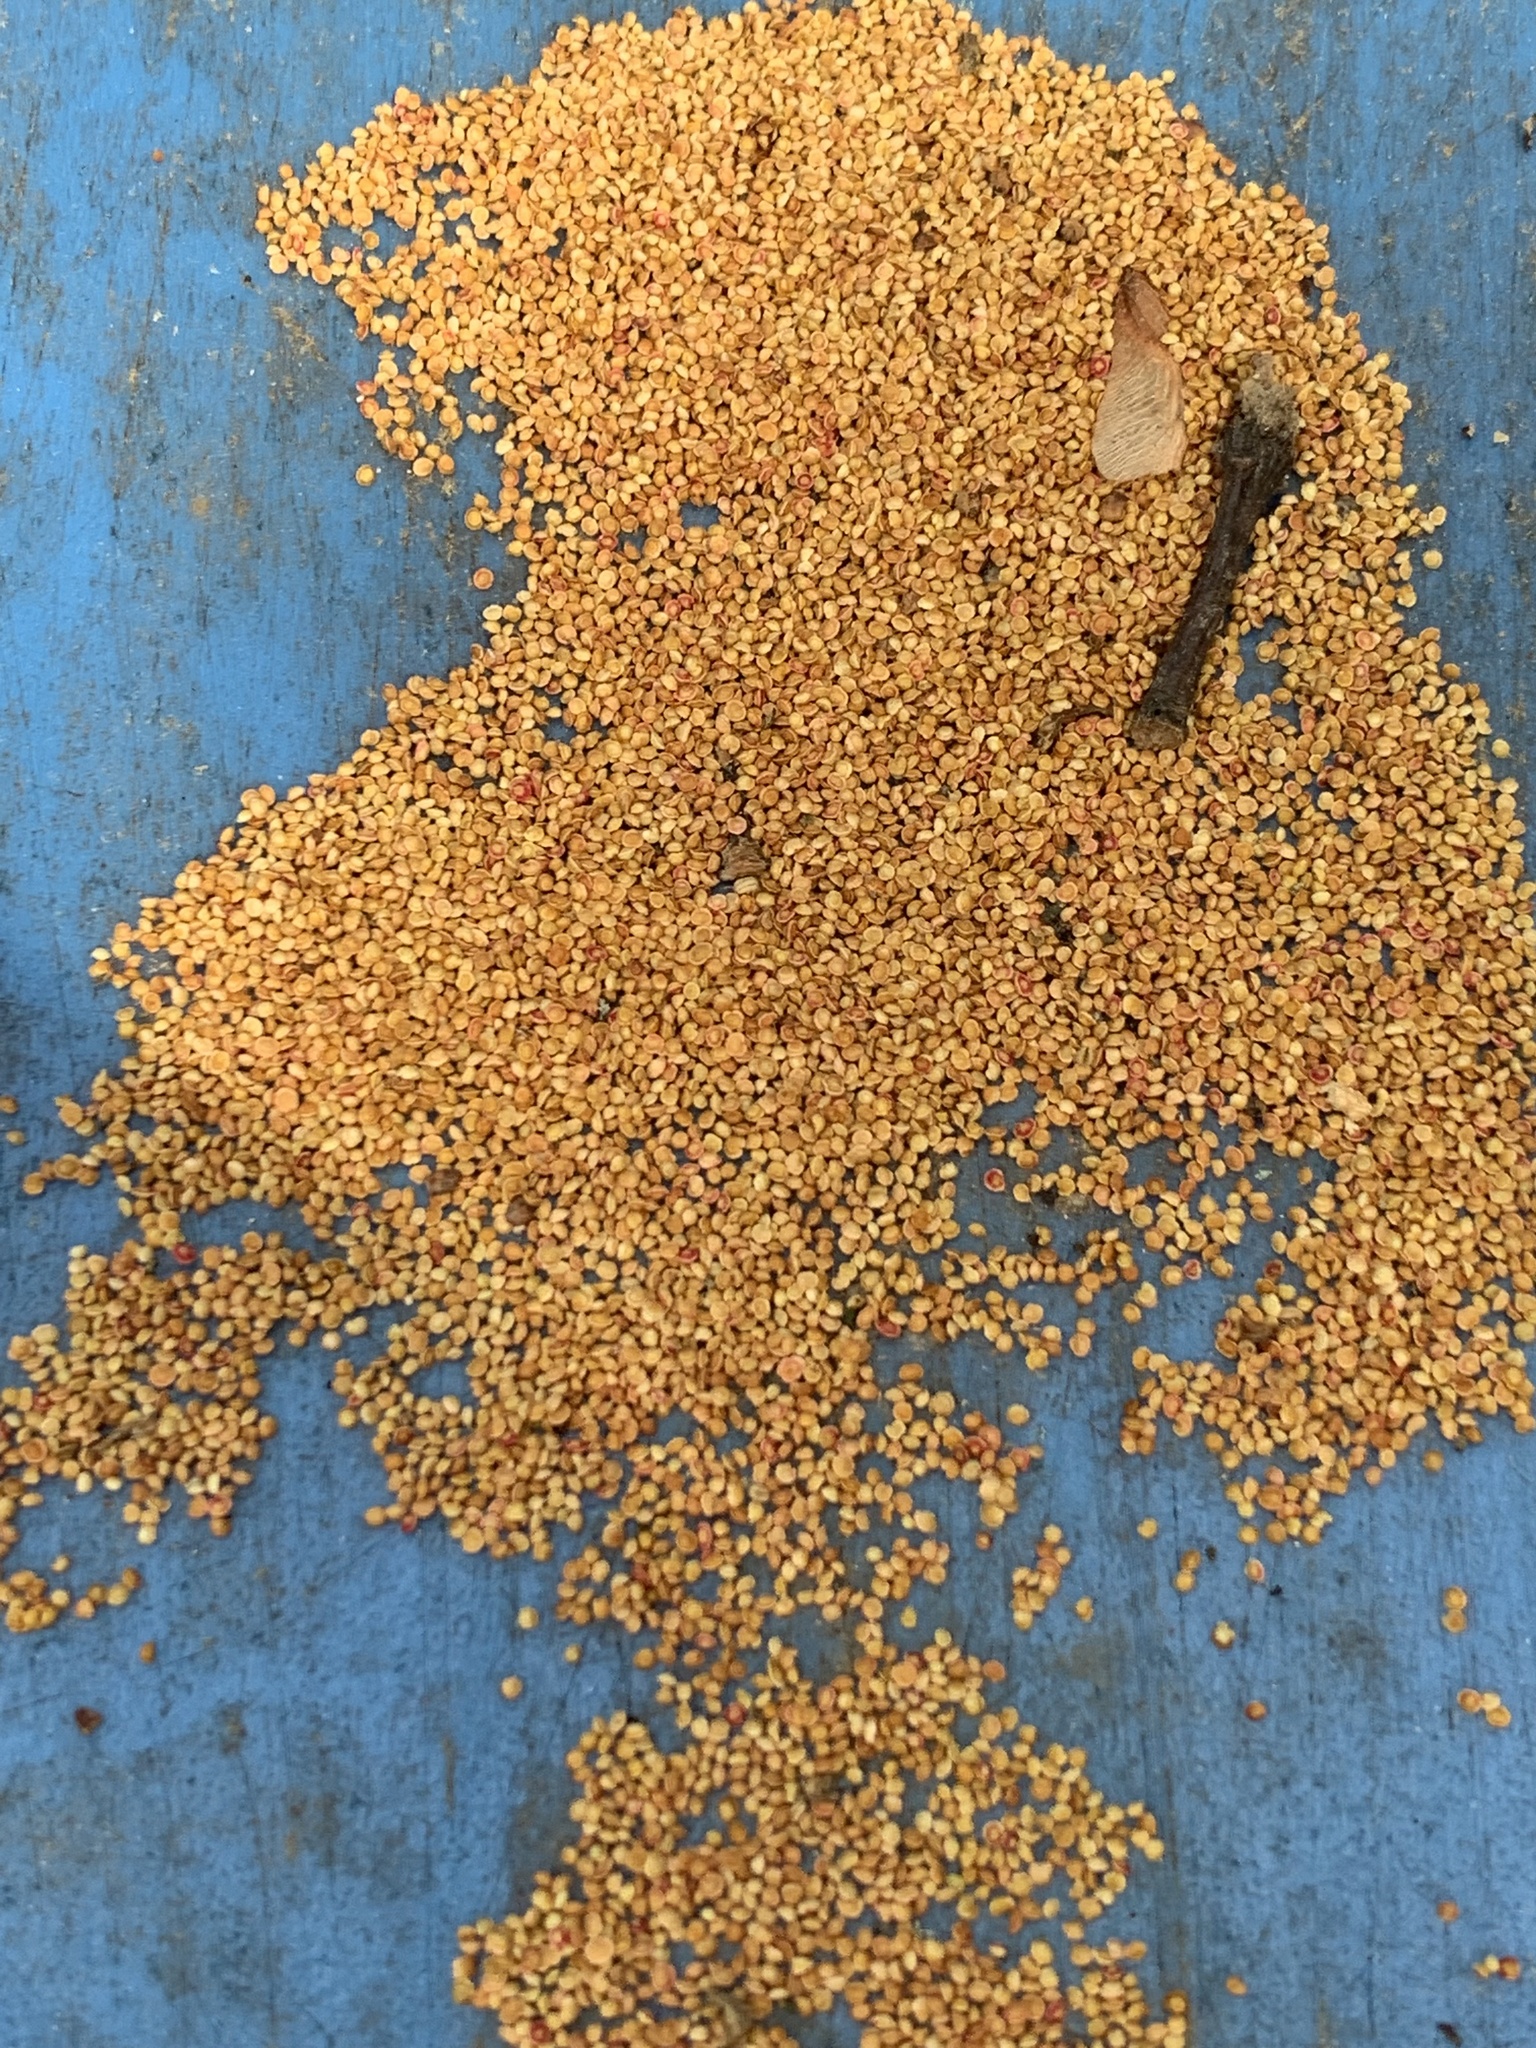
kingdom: Animalia
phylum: Arthropoda
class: Insecta
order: Hymenoptera
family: Cynipidae
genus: Neuroterus
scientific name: Neuroterus
